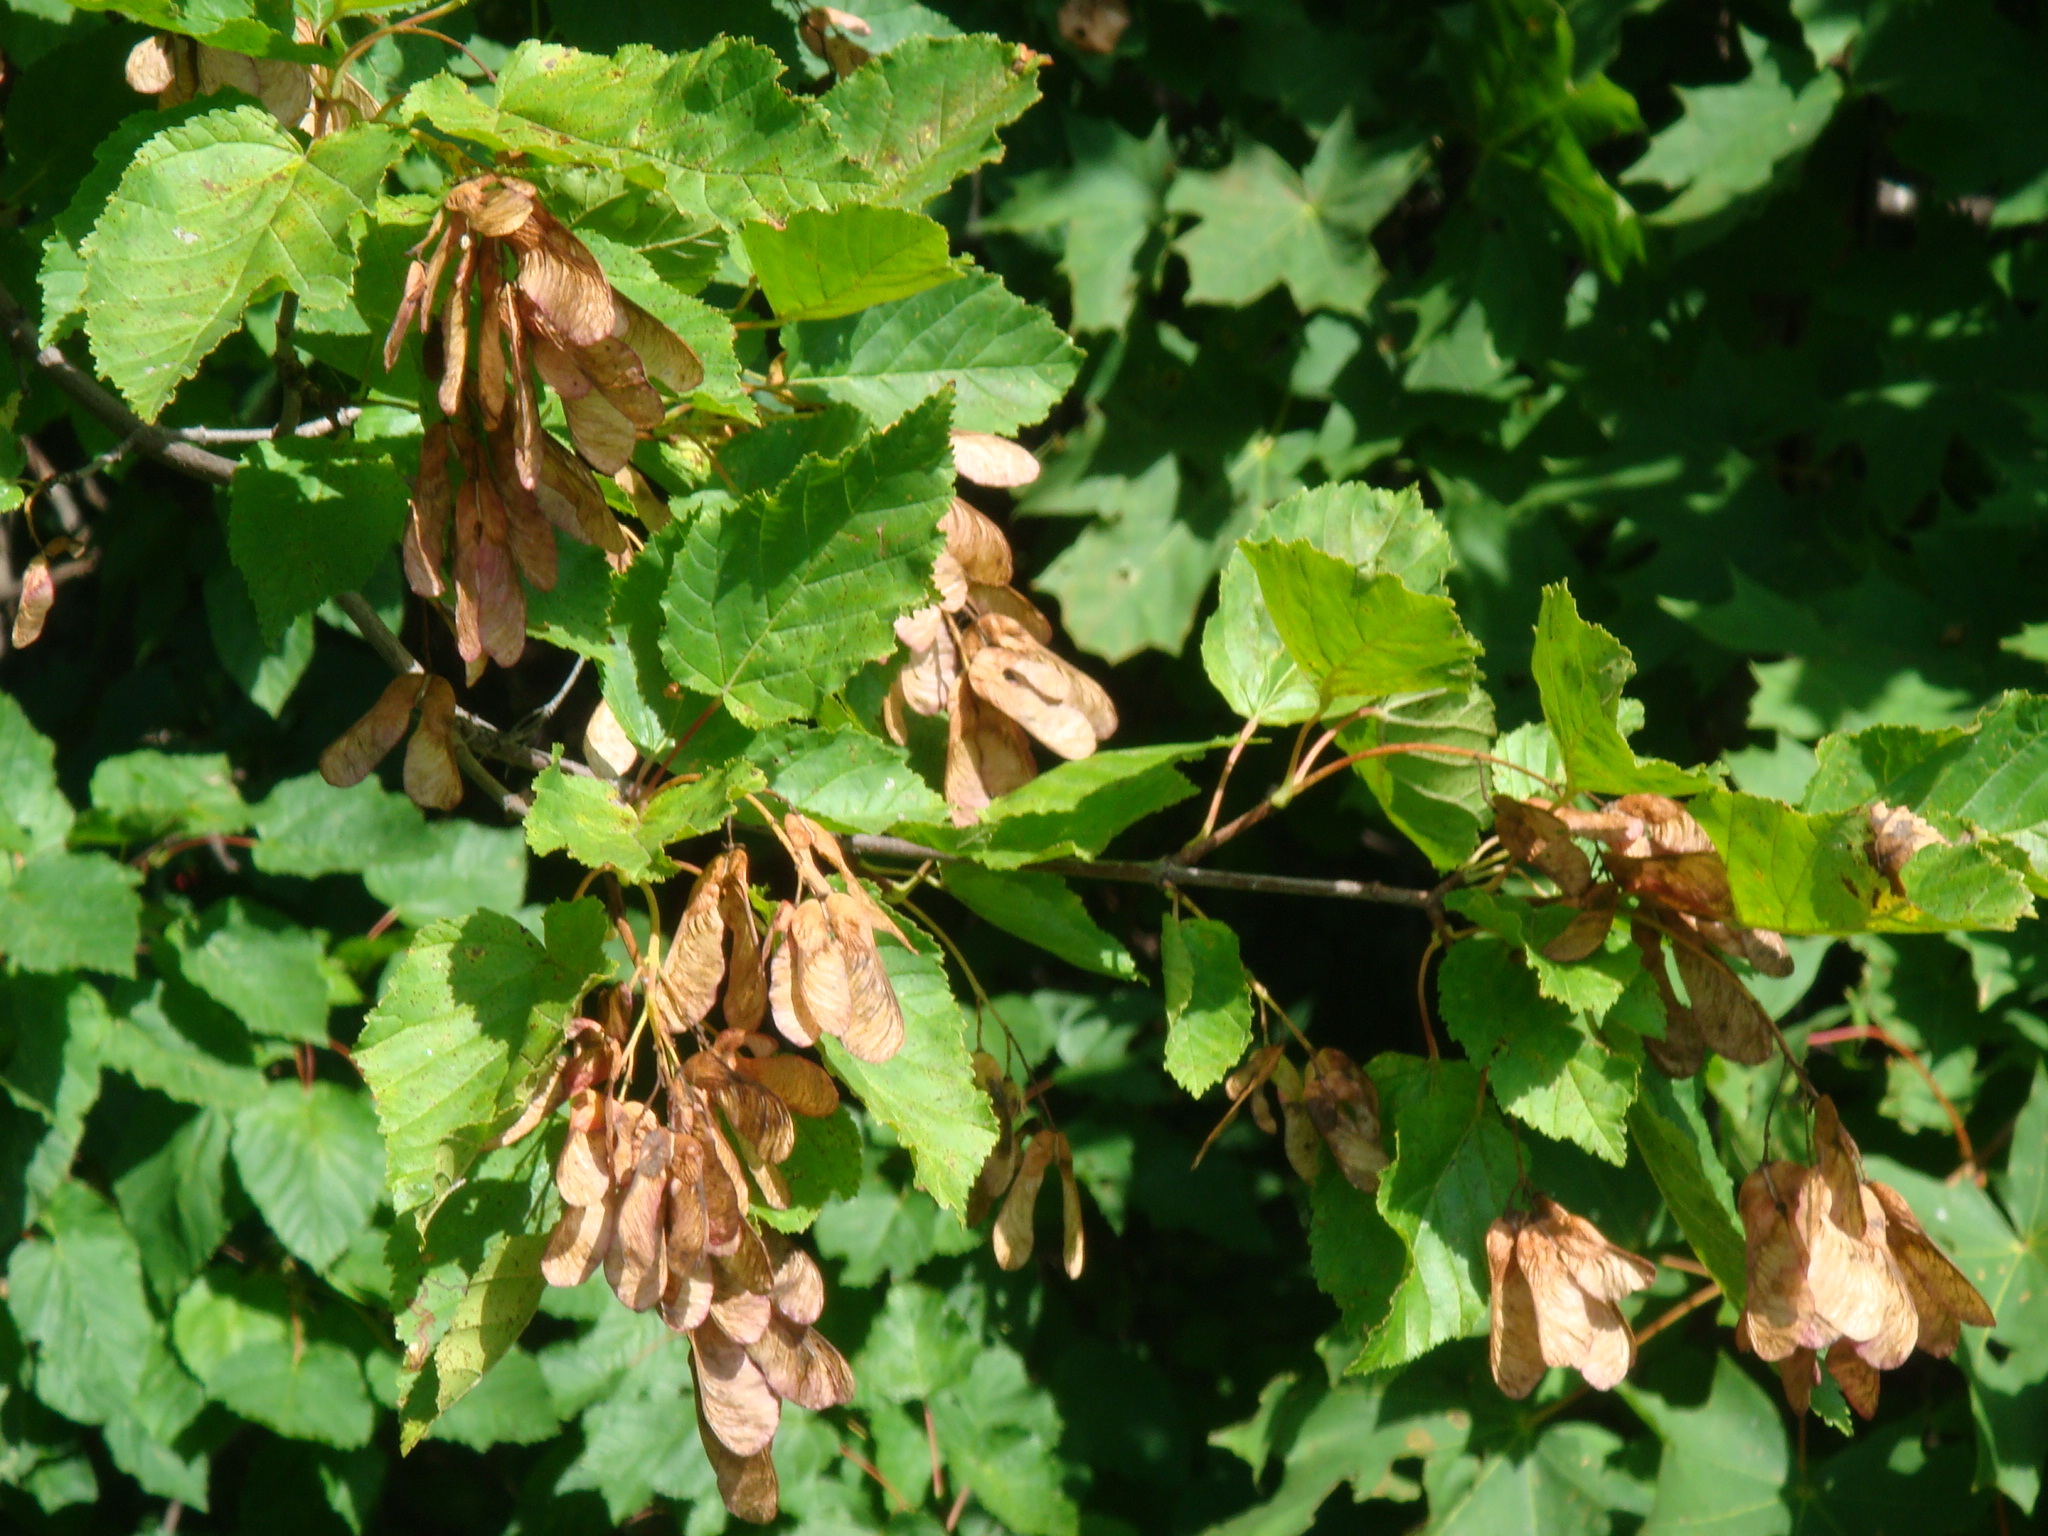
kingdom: Plantae
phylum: Tracheophyta
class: Magnoliopsida
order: Sapindales
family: Sapindaceae
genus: Acer
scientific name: Acer tataricum
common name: Tartar maple
